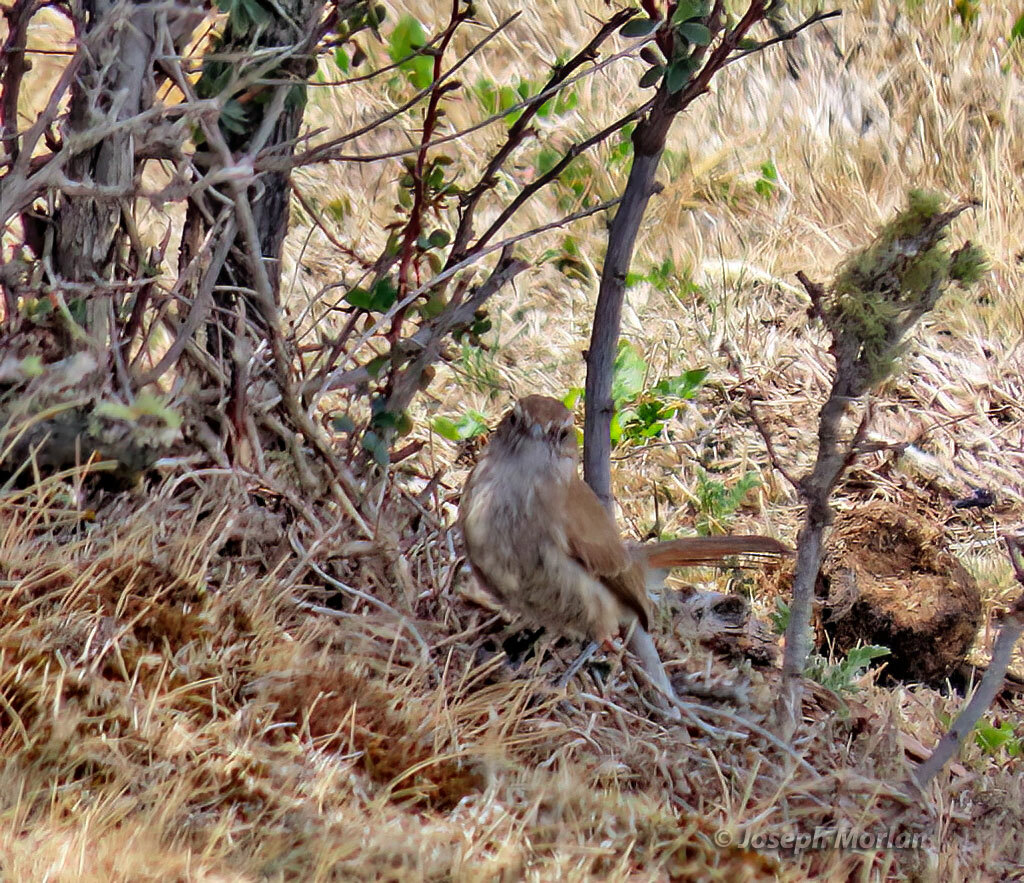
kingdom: Animalia
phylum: Chordata
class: Aves
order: Passeriformes
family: Furnariidae
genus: Eremobius
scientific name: Eremobius phoenicurus
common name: Band-tailed eremobius
